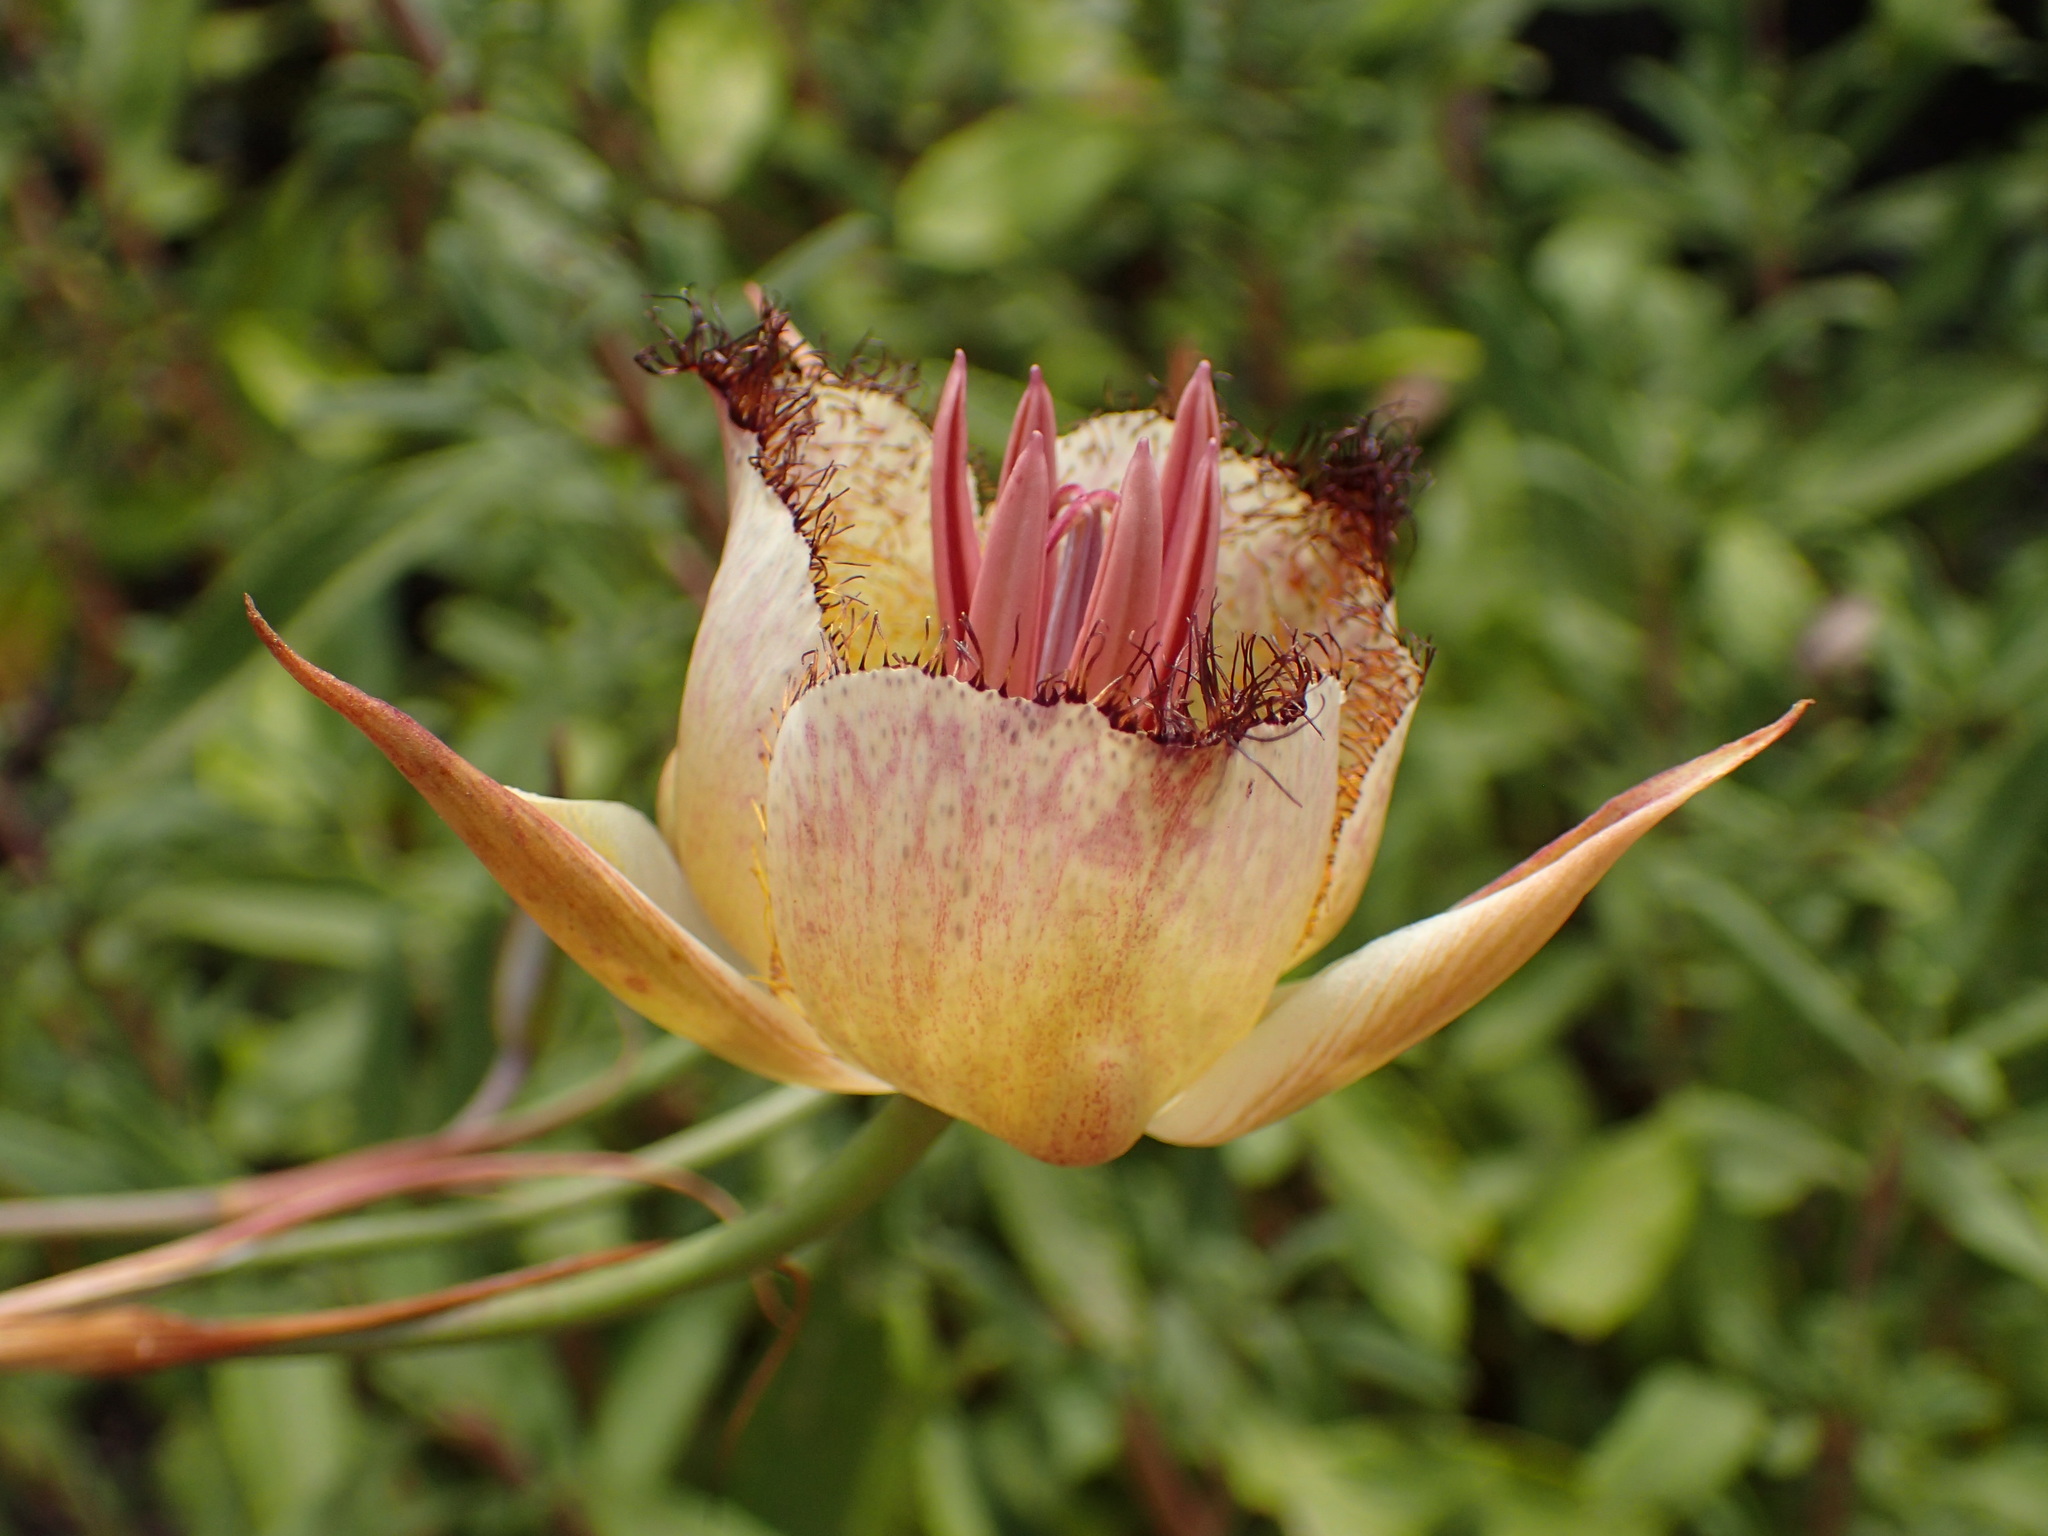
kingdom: Plantae
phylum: Tracheophyta
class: Liliopsida
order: Liliales
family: Liliaceae
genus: Calochortus
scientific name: Calochortus fimbriatus
